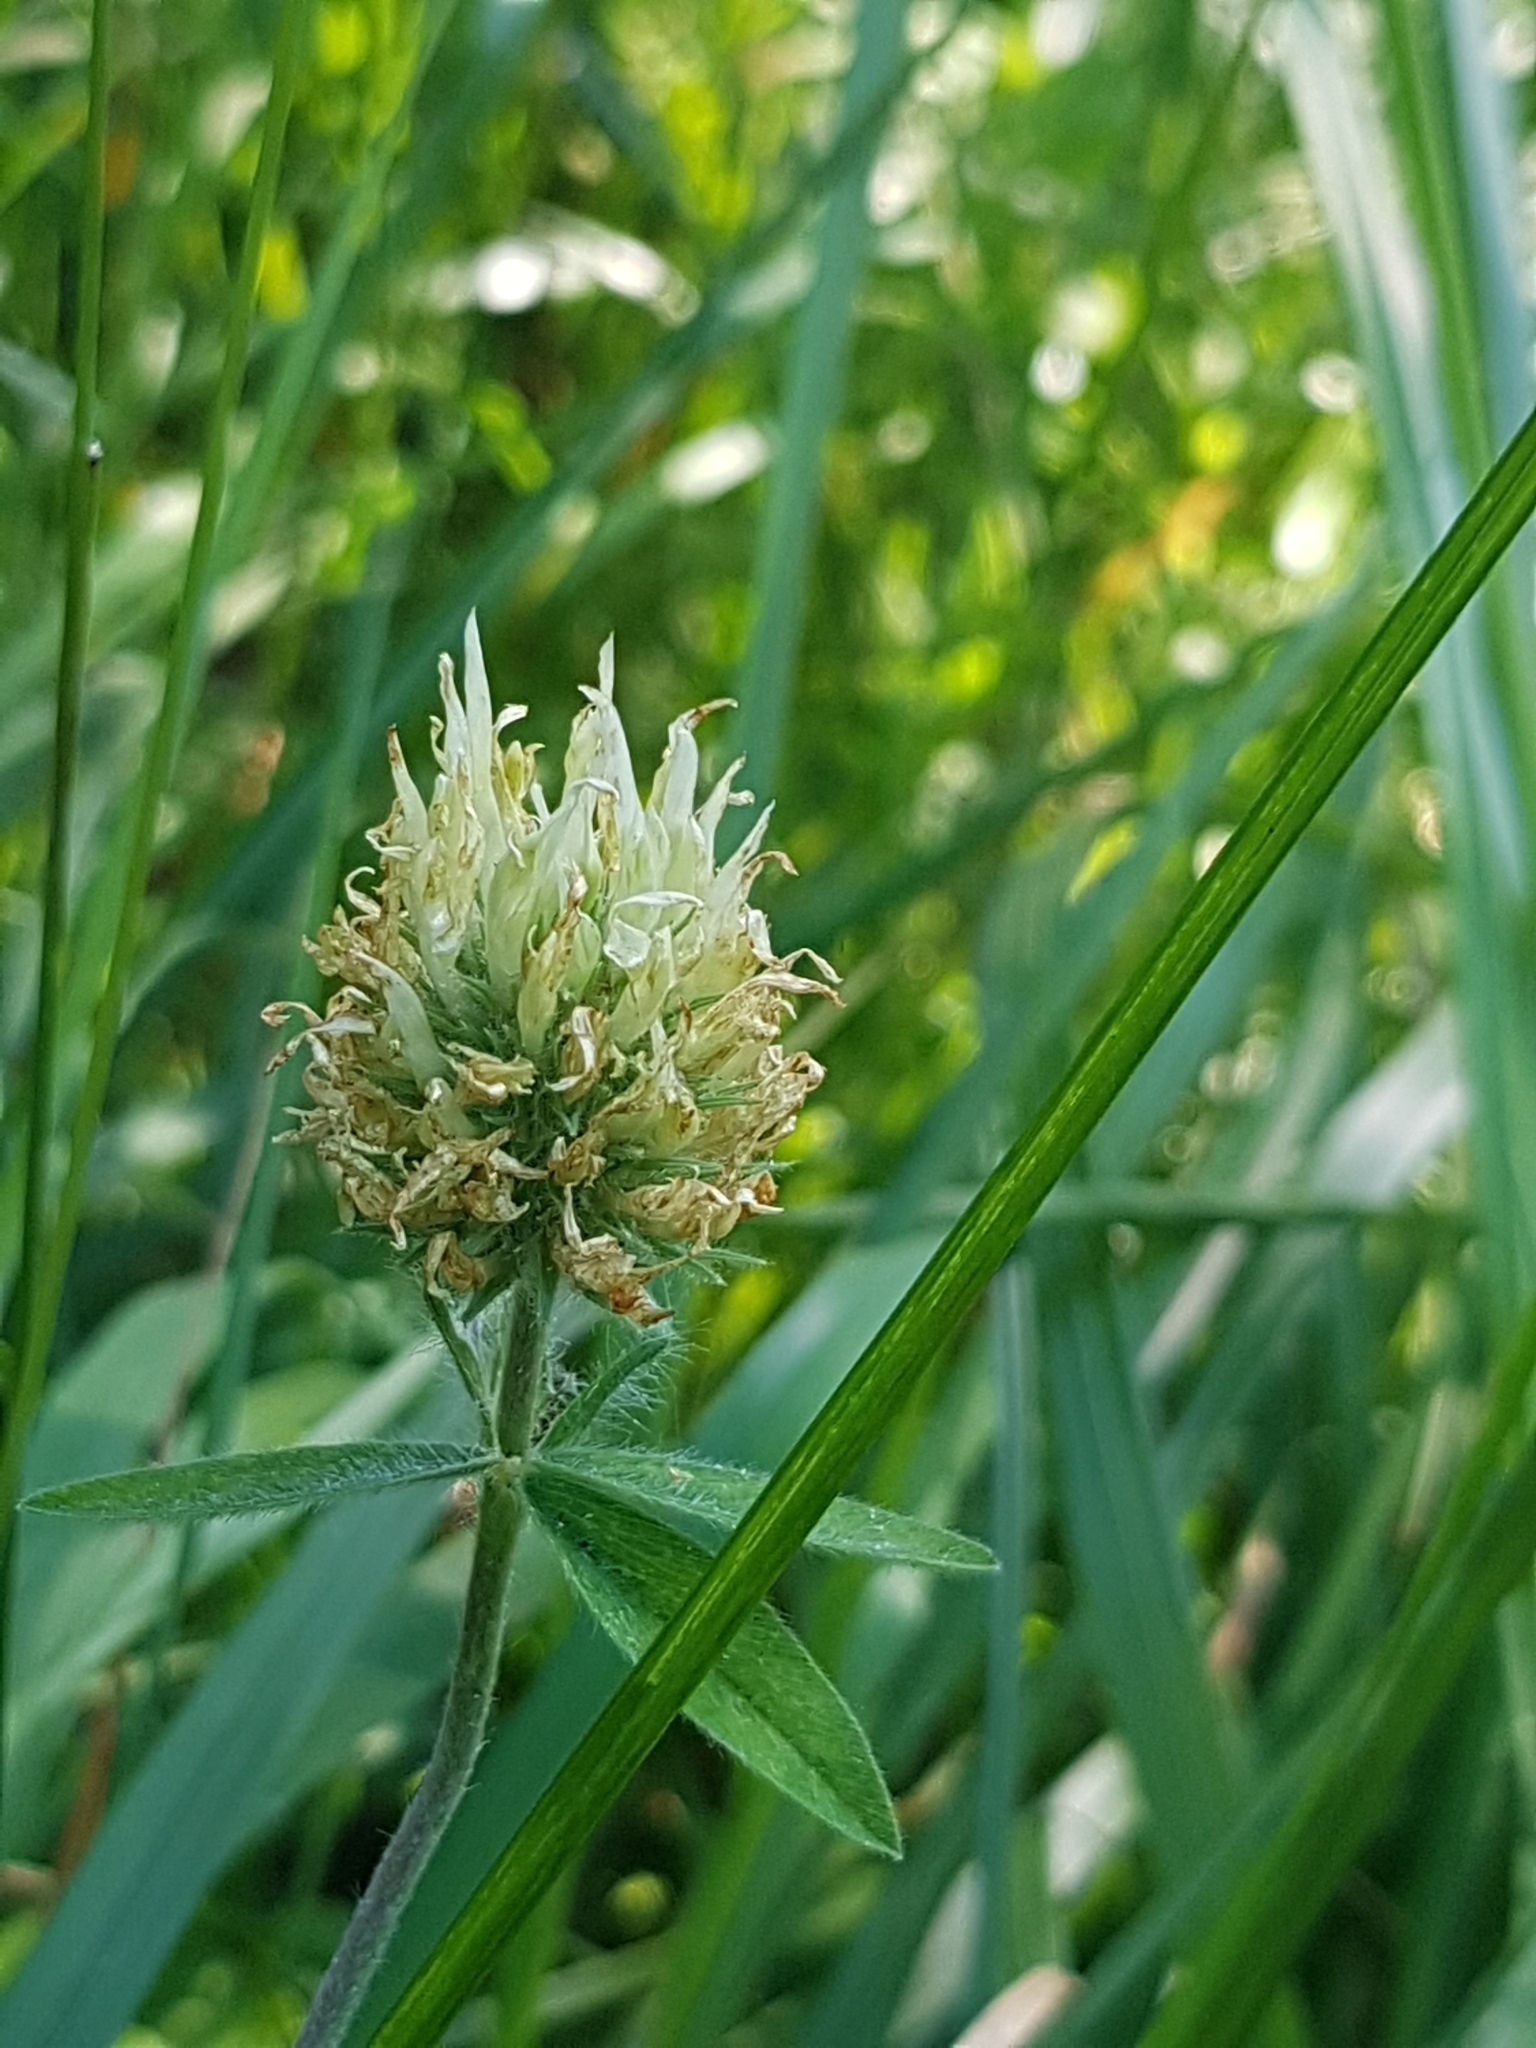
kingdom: Plantae
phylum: Tracheophyta
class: Magnoliopsida
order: Fabales
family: Fabaceae
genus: Trifolium
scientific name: Trifolium ochroleucon
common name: Sulphur clover
